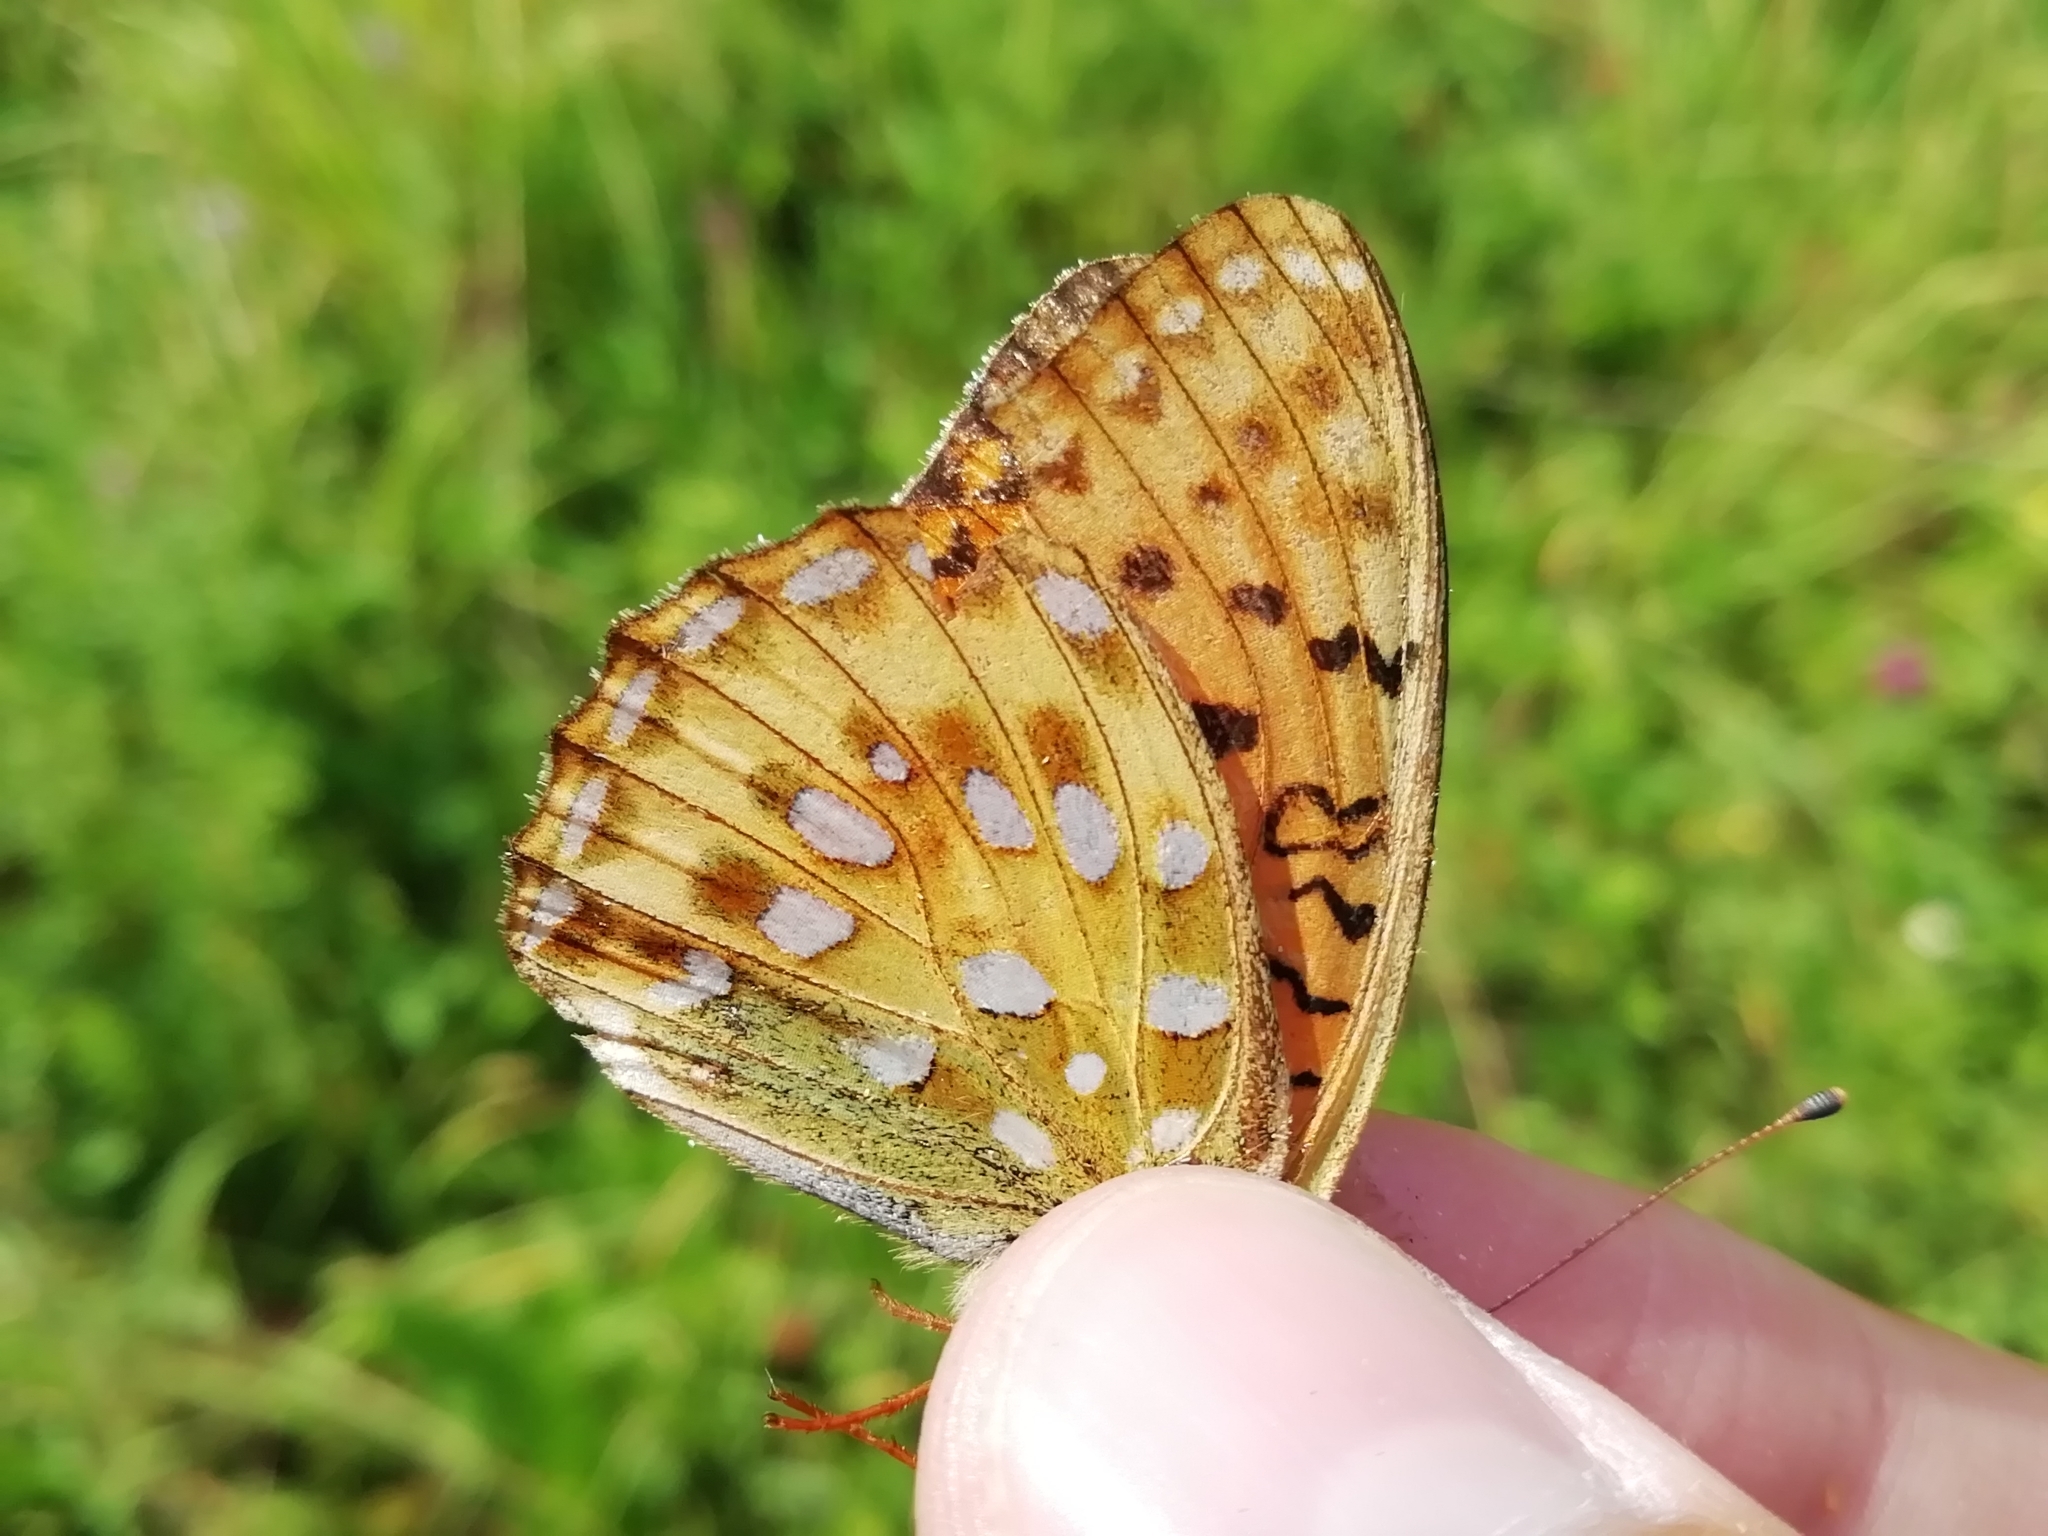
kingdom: Animalia
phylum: Arthropoda
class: Insecta
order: Lepidoptera
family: Nymphalidae
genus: Speyeria
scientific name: Speyeria aglaja
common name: Dark green fritillary
